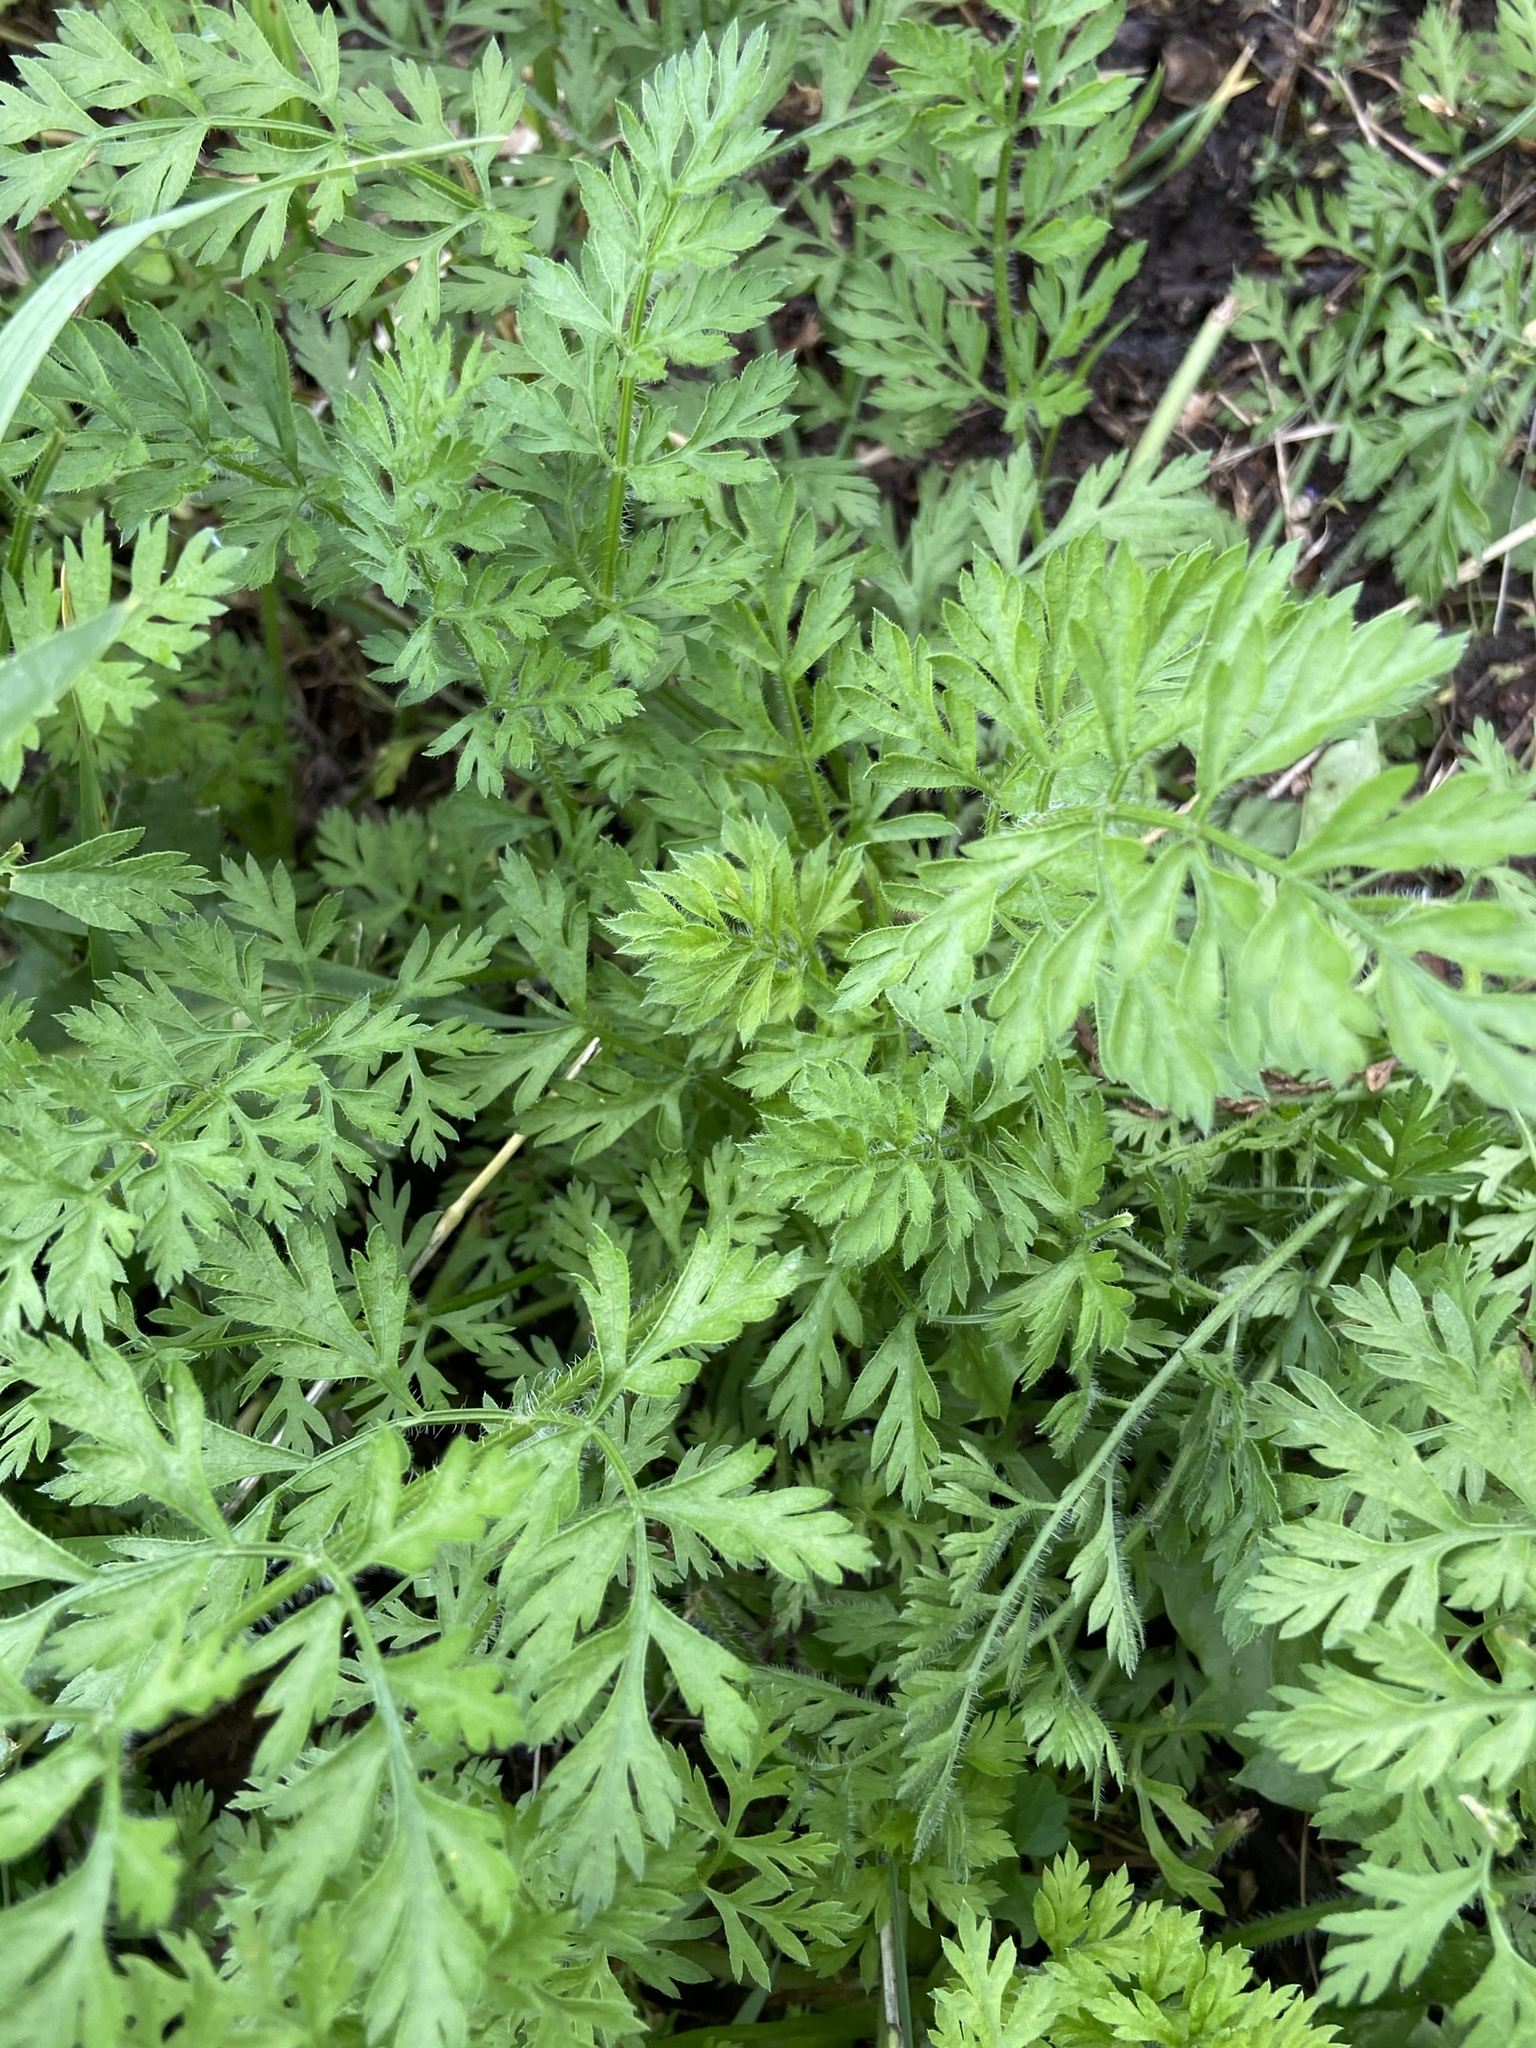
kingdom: Plantae
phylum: Tracheophyta
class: Magnoliopsida
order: Apiales
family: Apiaceae
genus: Daucus
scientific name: Daucus carota
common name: Wild carrot
